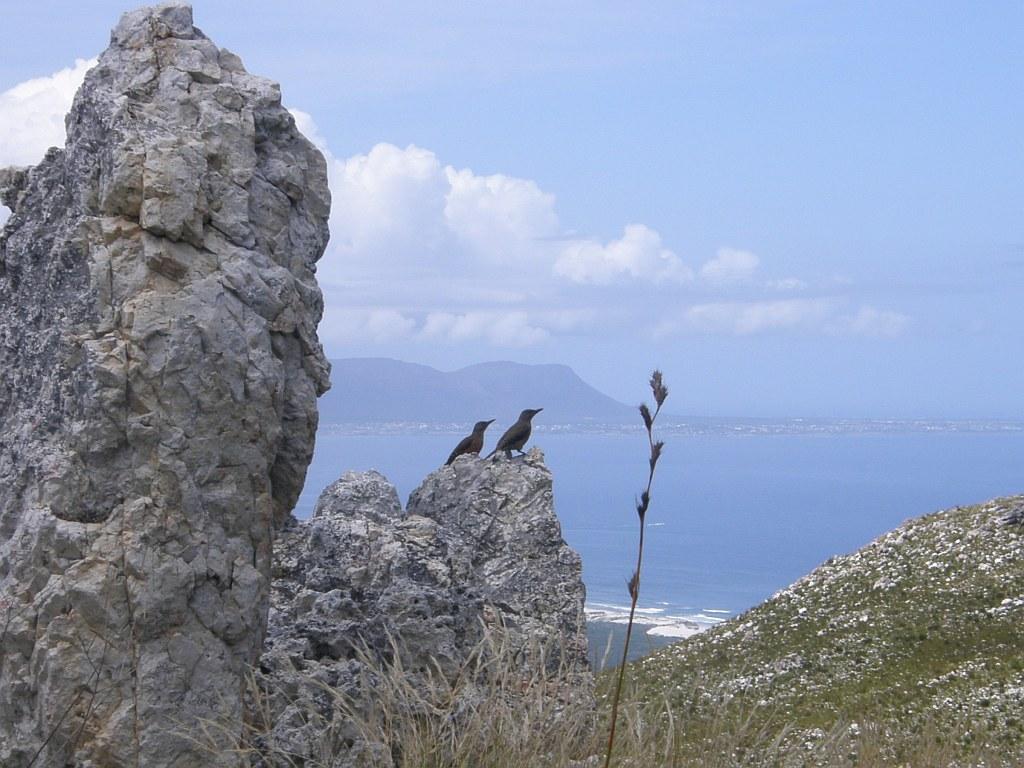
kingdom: Animalia
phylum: Chordata
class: Aves
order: Piciformes
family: Picidae
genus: Geocolaptes
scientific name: Geocolaptes olivaceus
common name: Ground woodpecker
